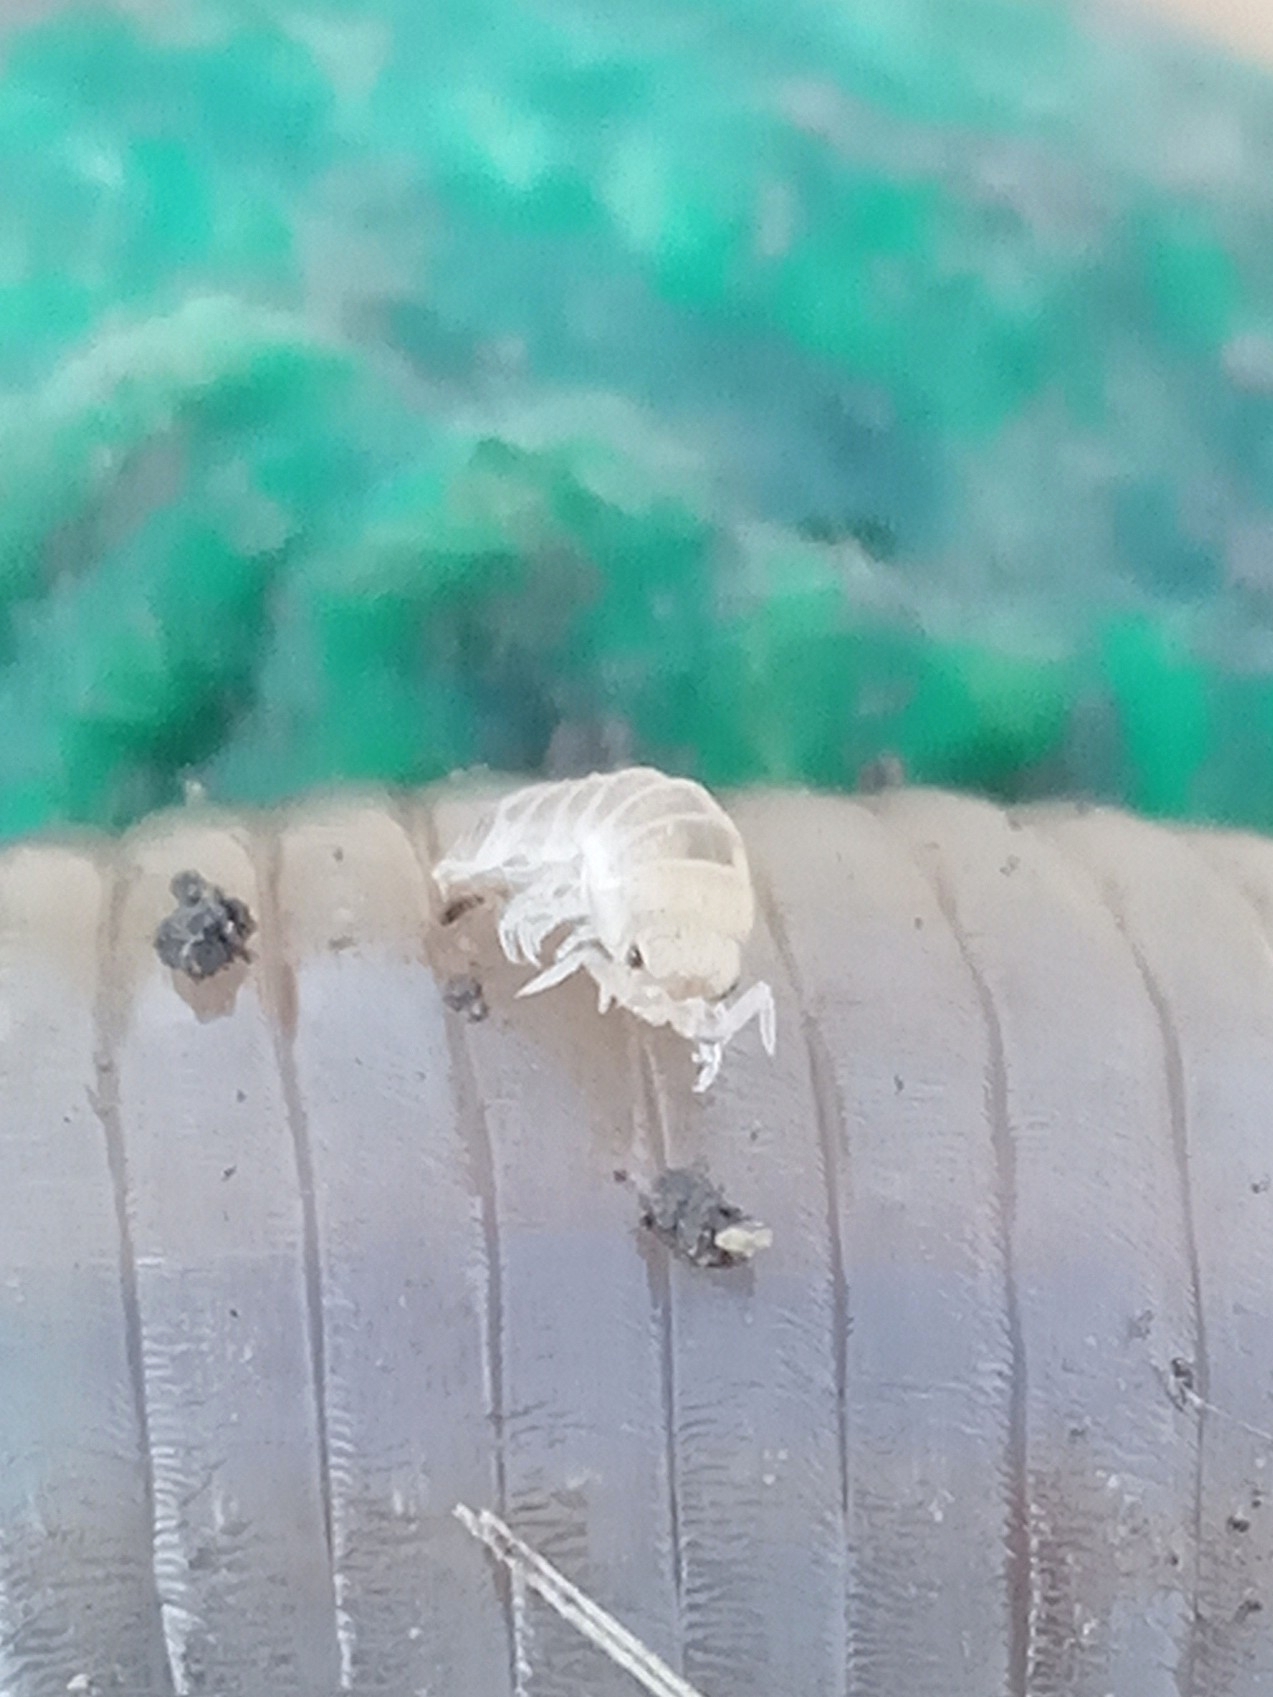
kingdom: Animalia
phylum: Arthropoda
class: Malacostraca
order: Isopoda
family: Cylisticidae
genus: Cylisticus
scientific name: Cylisticus
